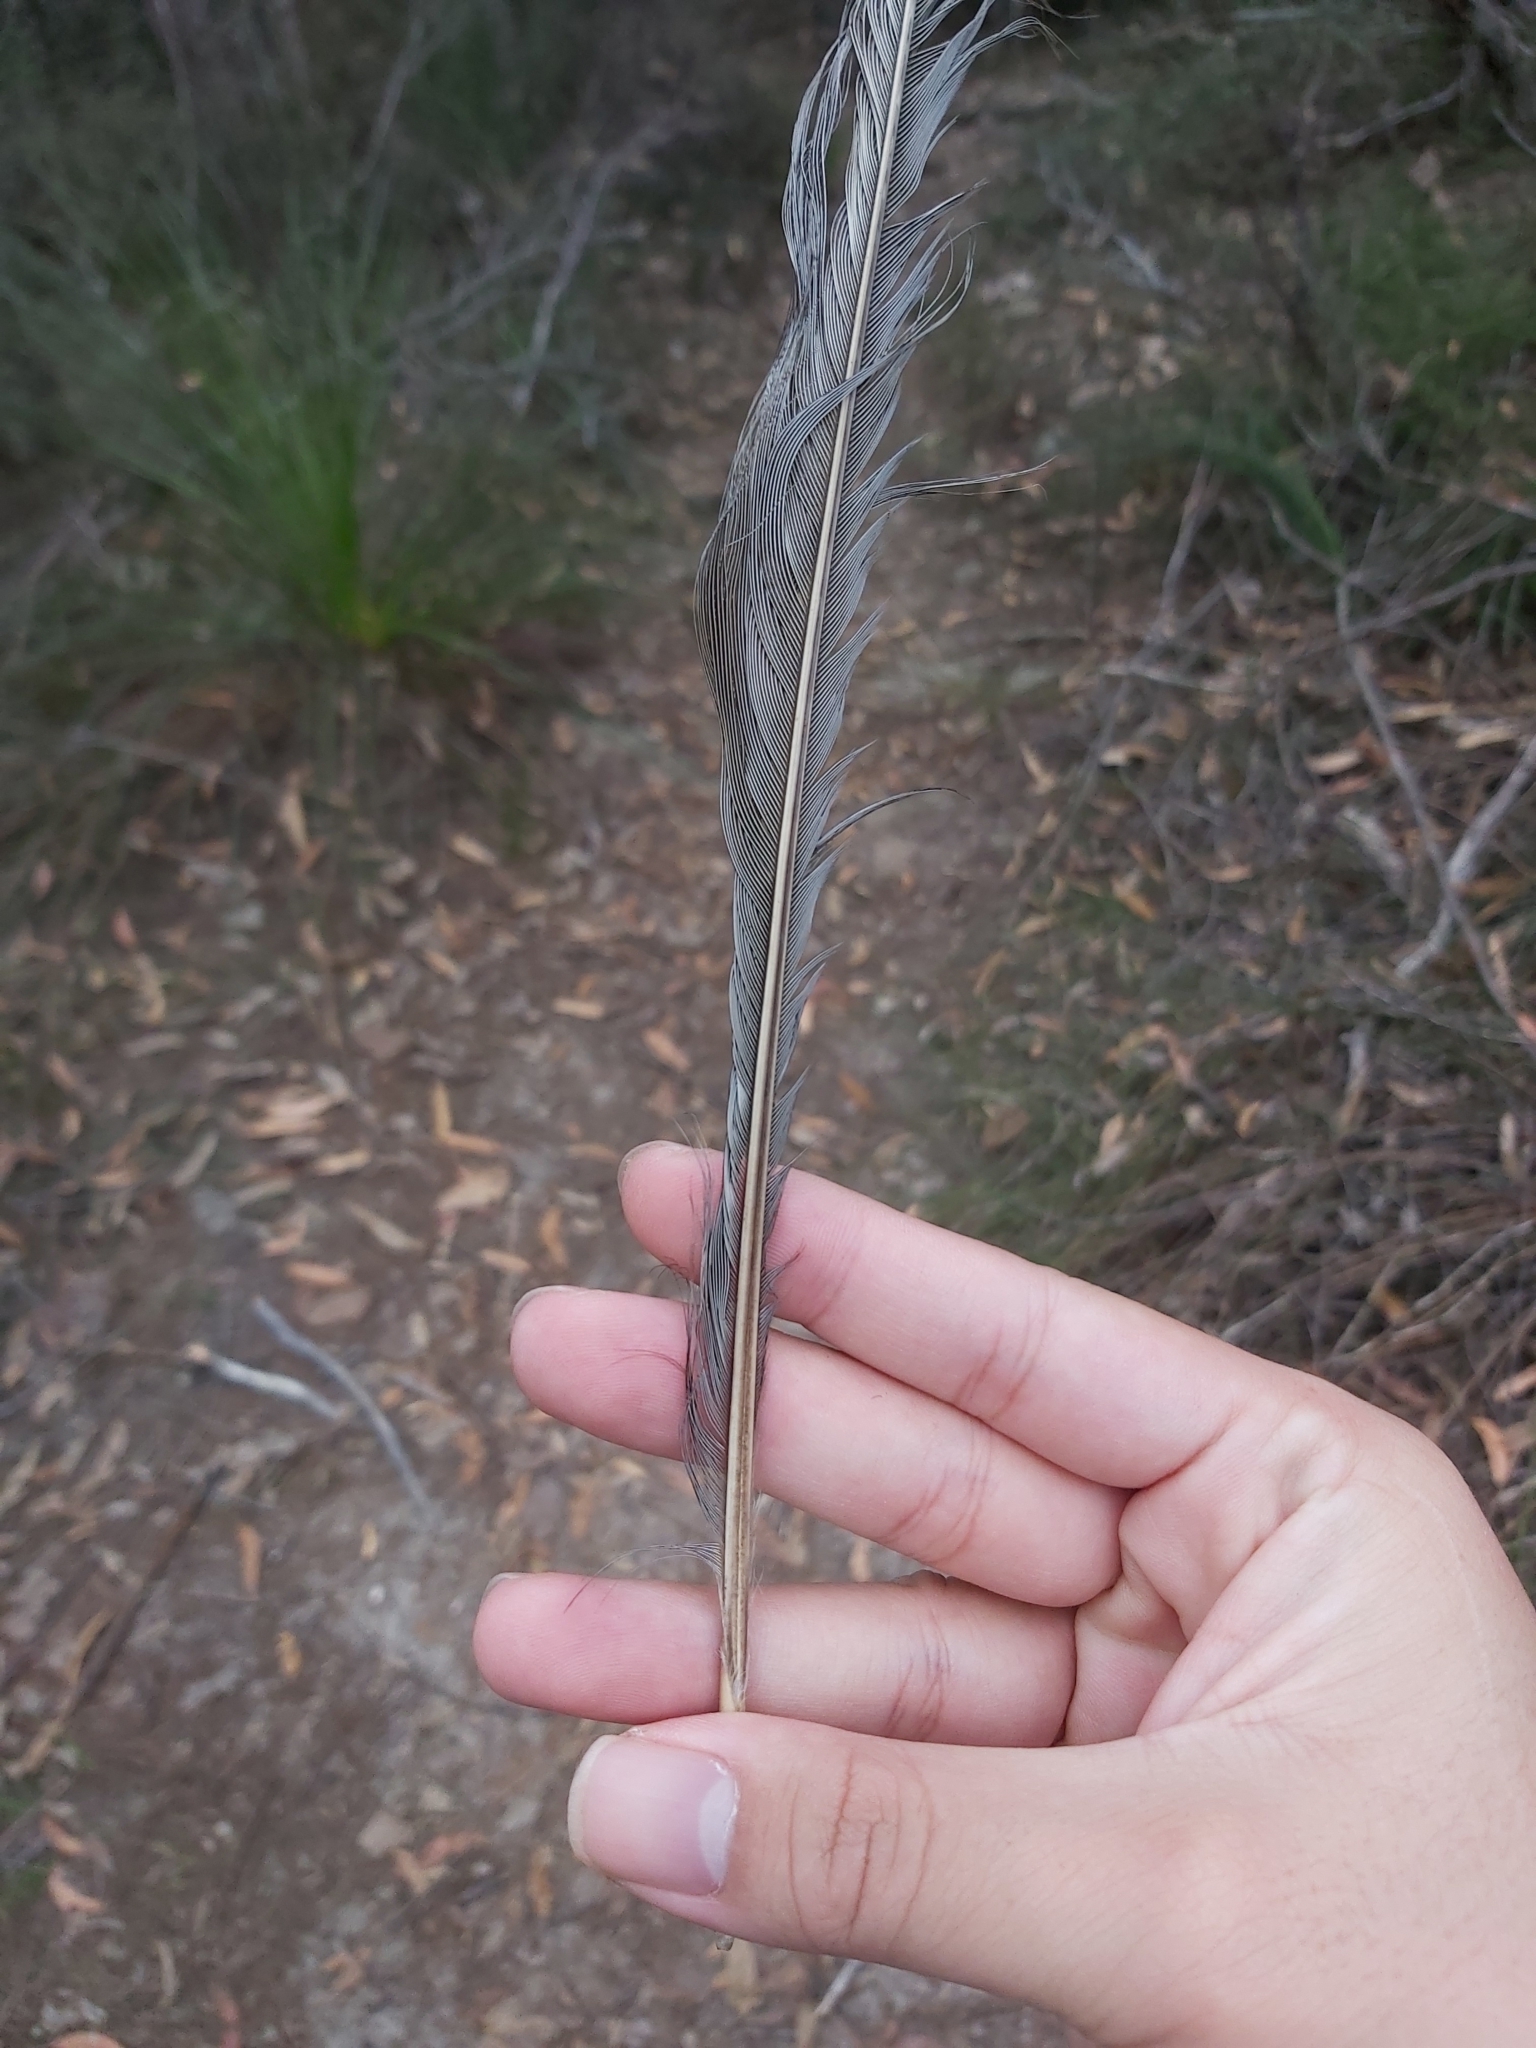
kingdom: Animalia
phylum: Chordata
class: Aves
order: Passeriformes
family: Menuridae
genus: Menura
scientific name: Menura novaehollandiae
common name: Superb lyrebird
